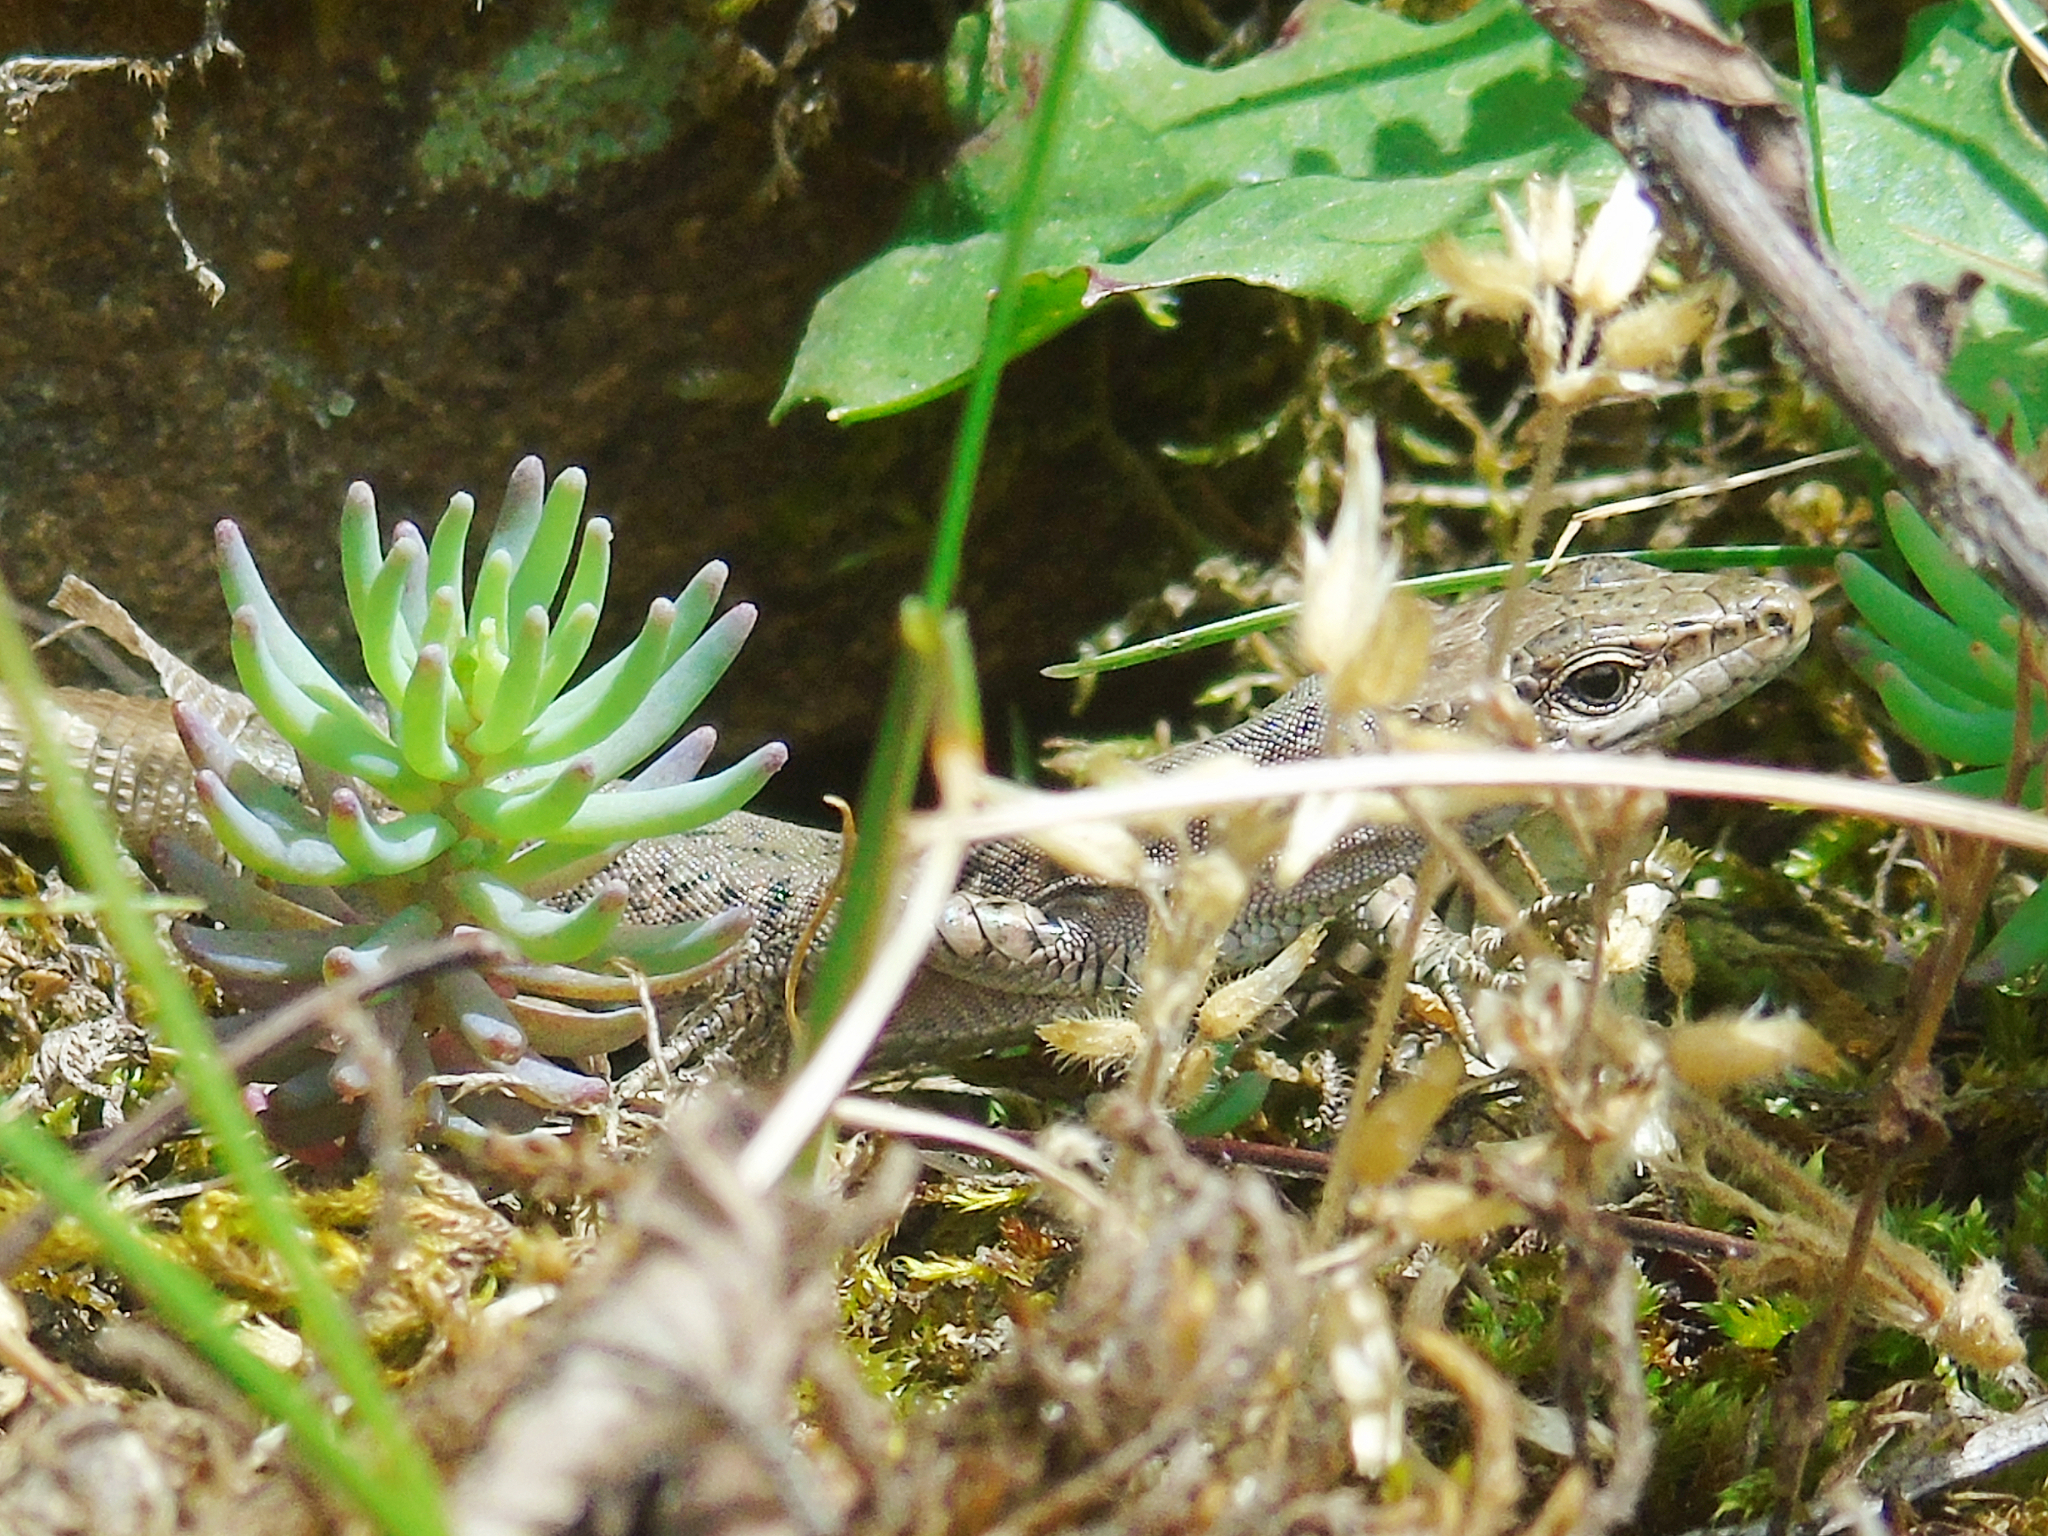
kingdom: Animalia
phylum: Chordata
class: Squamata
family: Lacertidae
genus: Darevskia
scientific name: Darevskia brauneri
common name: Brauner's rock lizard
